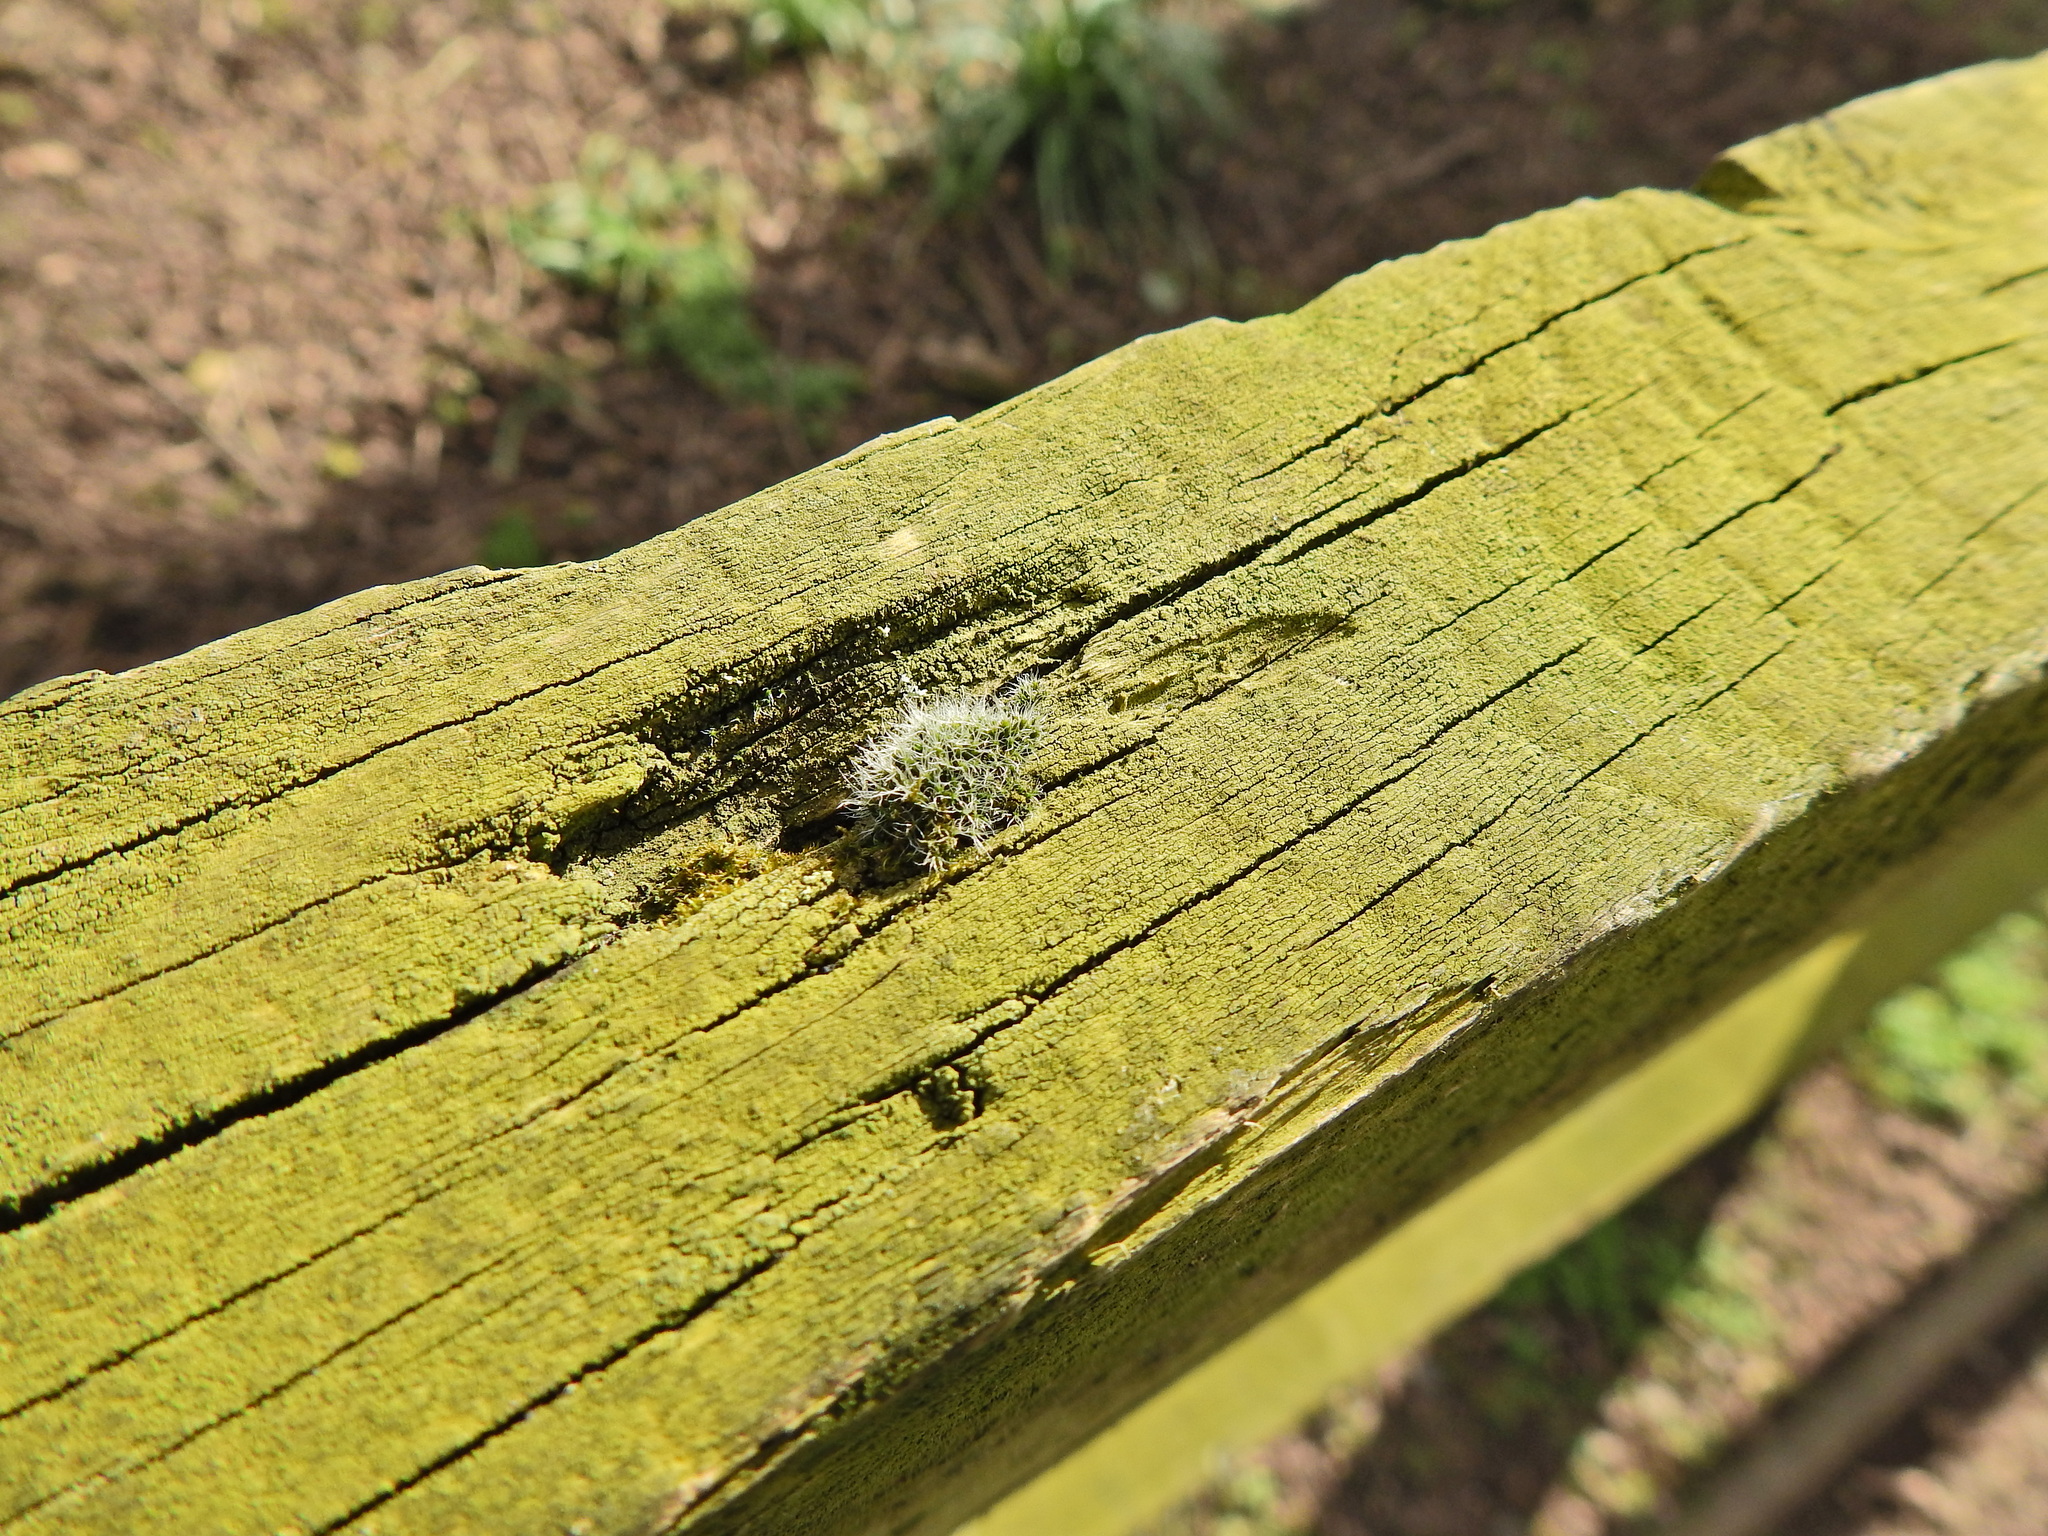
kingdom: Plantae
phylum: Bryophyta
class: Bryopsida
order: Grimmiales
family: Grimmiaceae
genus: Grimmia
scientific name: Grimmia pulvinata
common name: Grey-cushioned grimmia
